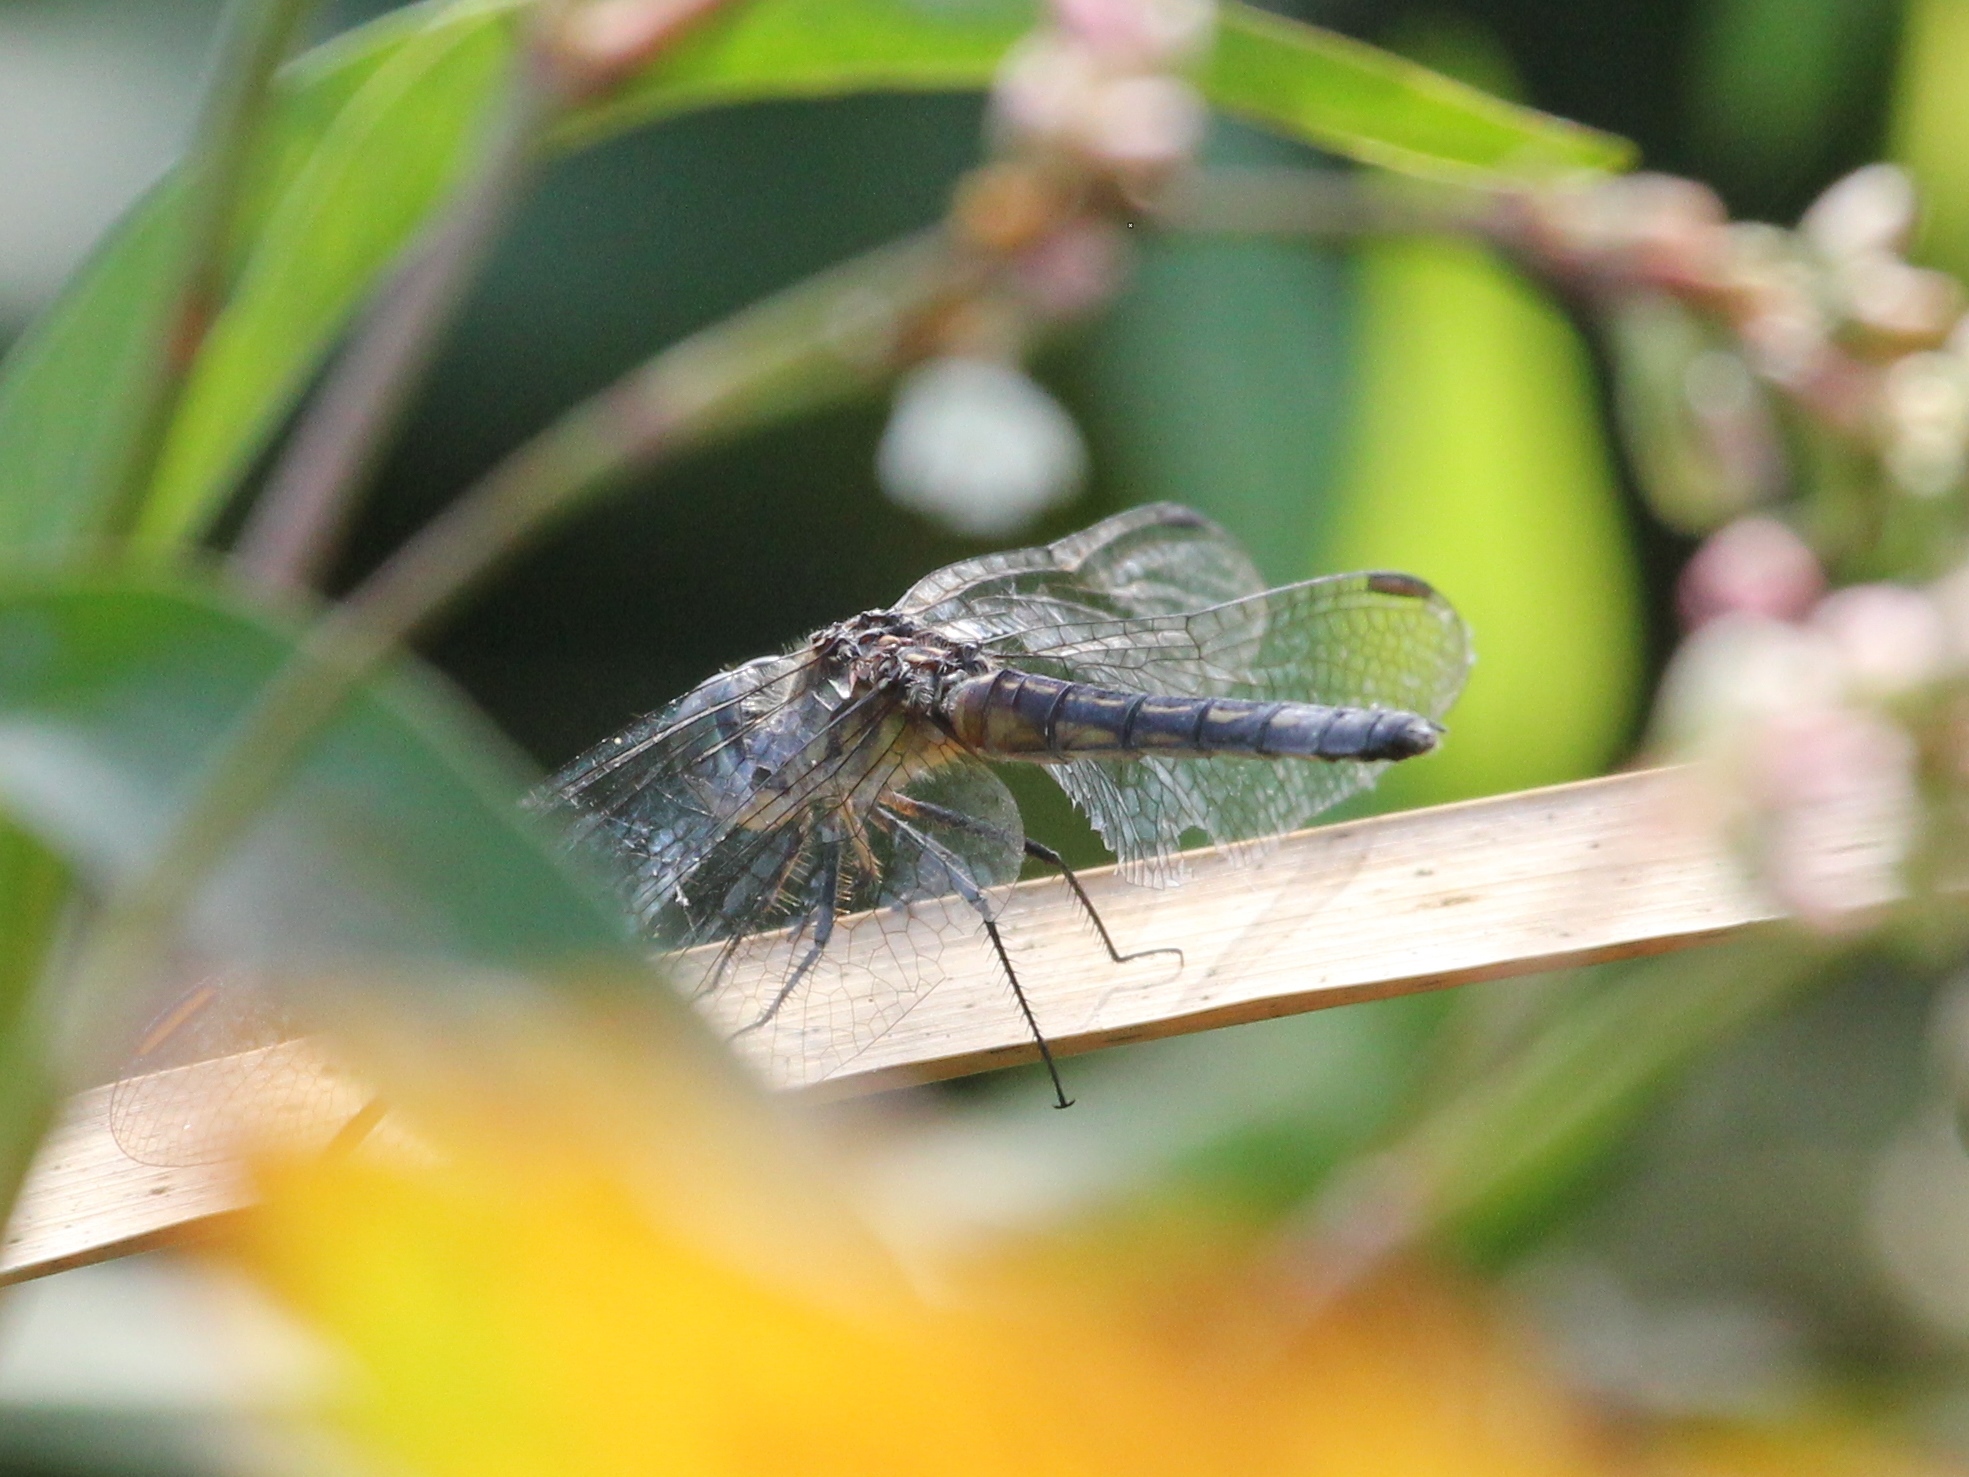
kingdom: Animalia
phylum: Arthropoda
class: Insecta
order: Odonata
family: Libellulidae
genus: Pachydiplax
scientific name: Pachydiplax longipennis
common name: Blue dasher
